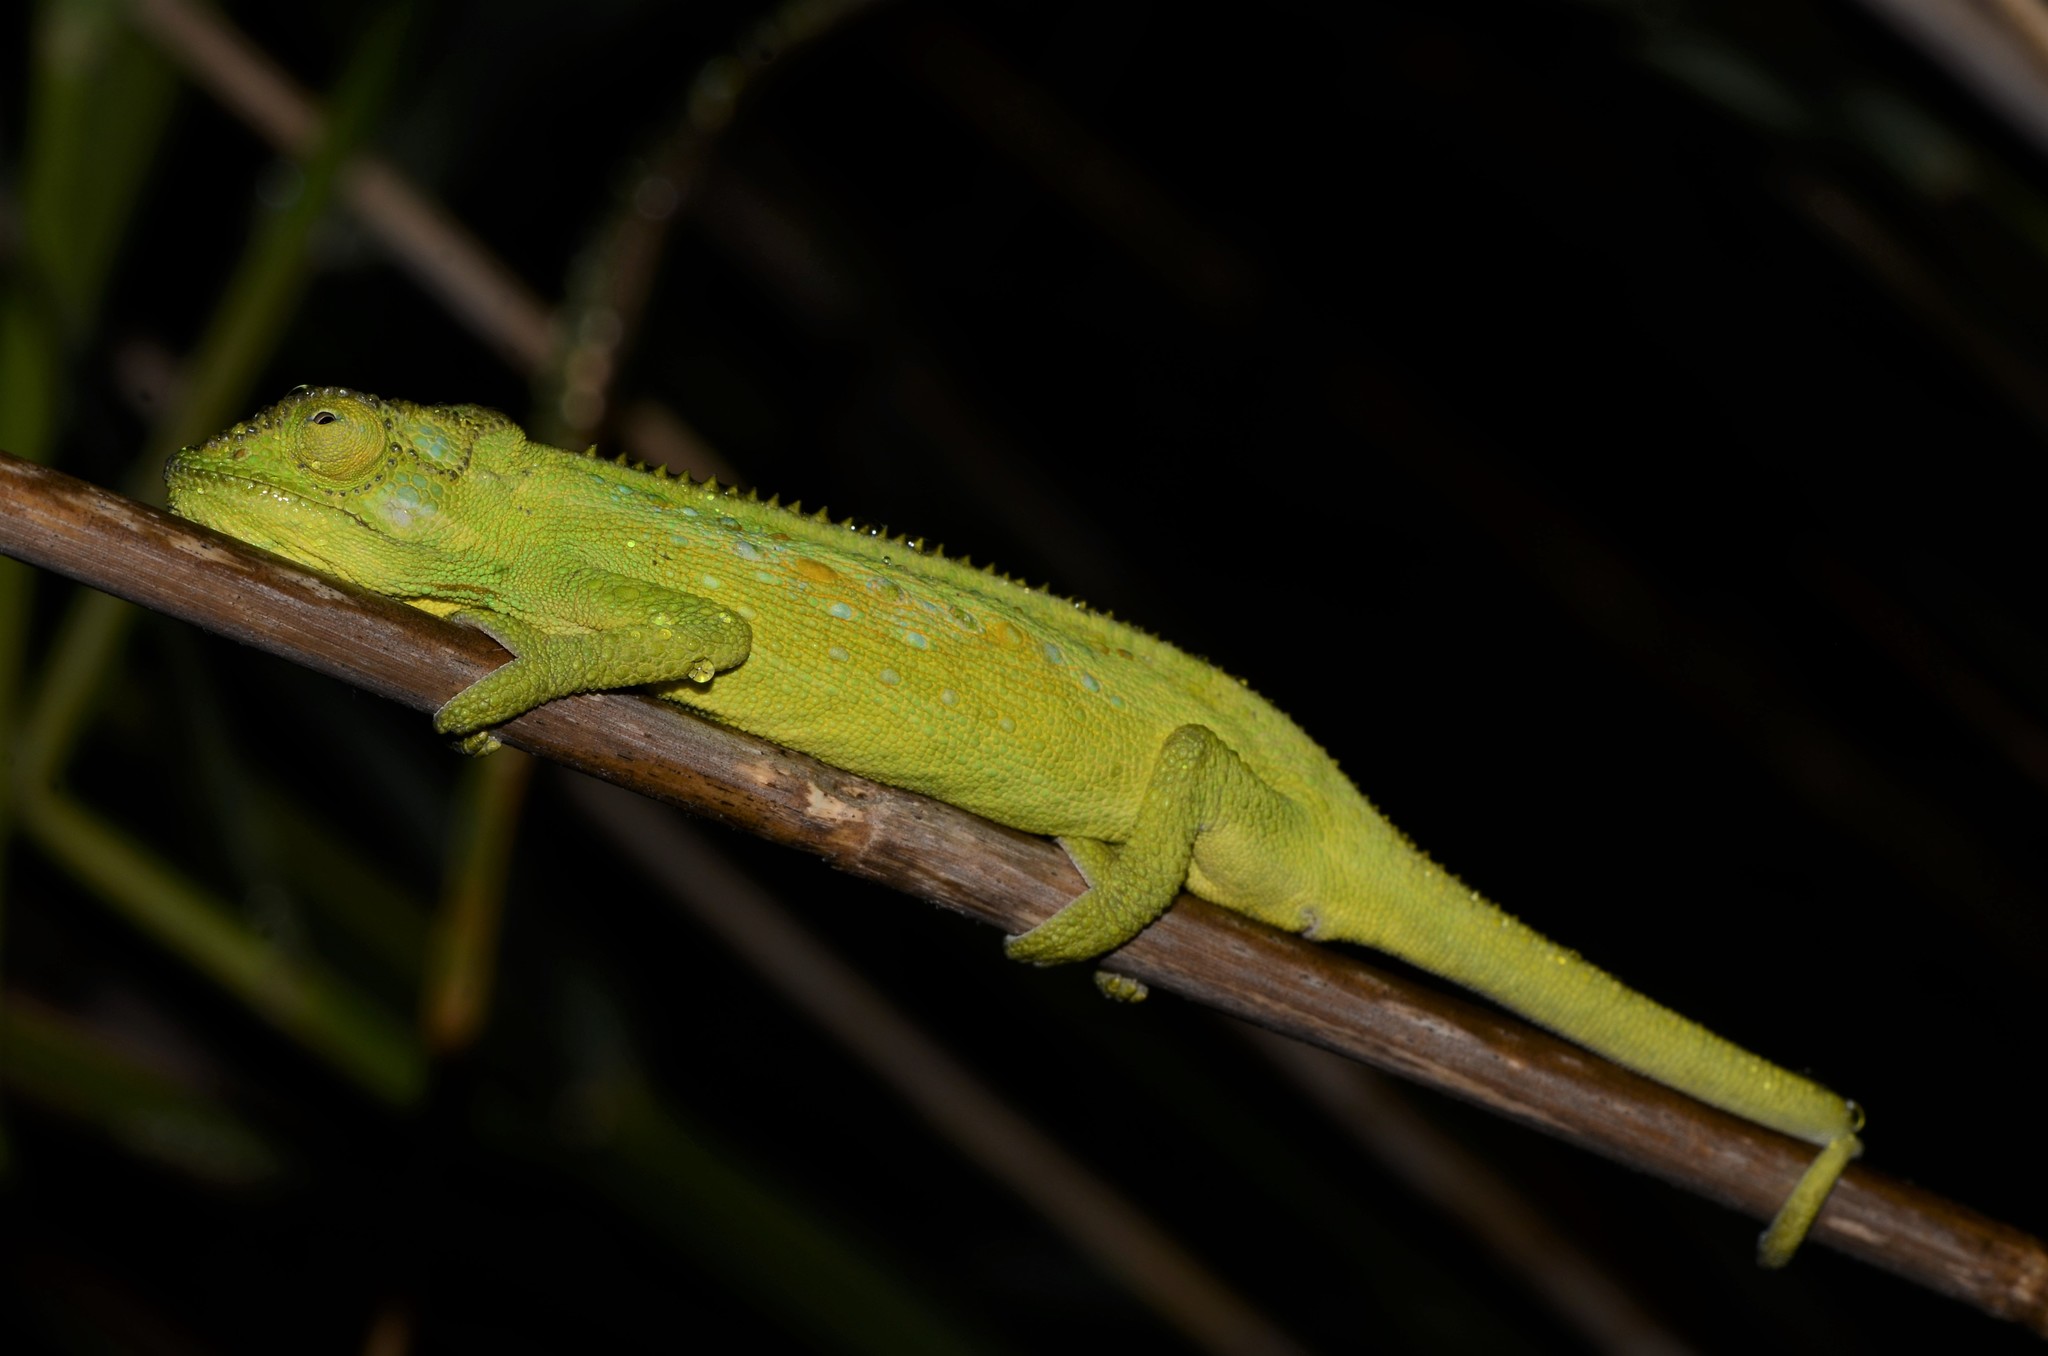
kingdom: Animalia
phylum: Chordata
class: Squamata
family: Chamaeleonidae
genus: Bradypodion
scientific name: Bradypodion pumilum
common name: Cape dwarf chameleon
